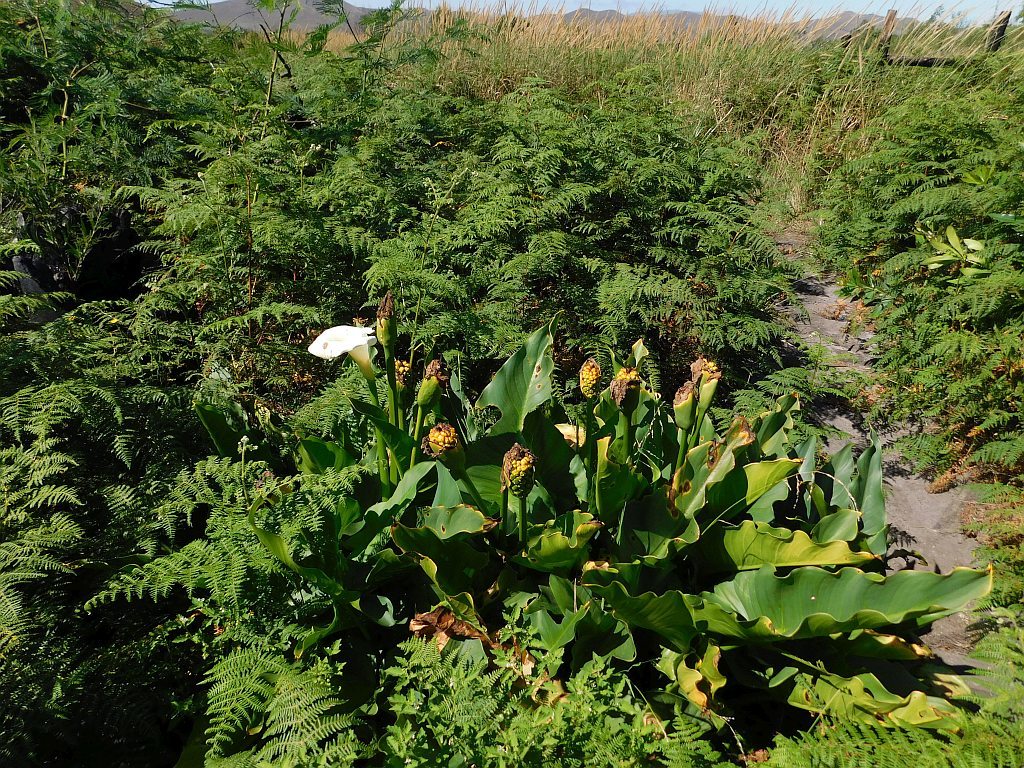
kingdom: Plantae
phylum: Tracheophyta
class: Liliopsida
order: Alismatales
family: Araceae
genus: Zantedeschia
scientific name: Zantedeschia aethiopica
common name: Altar-lily
